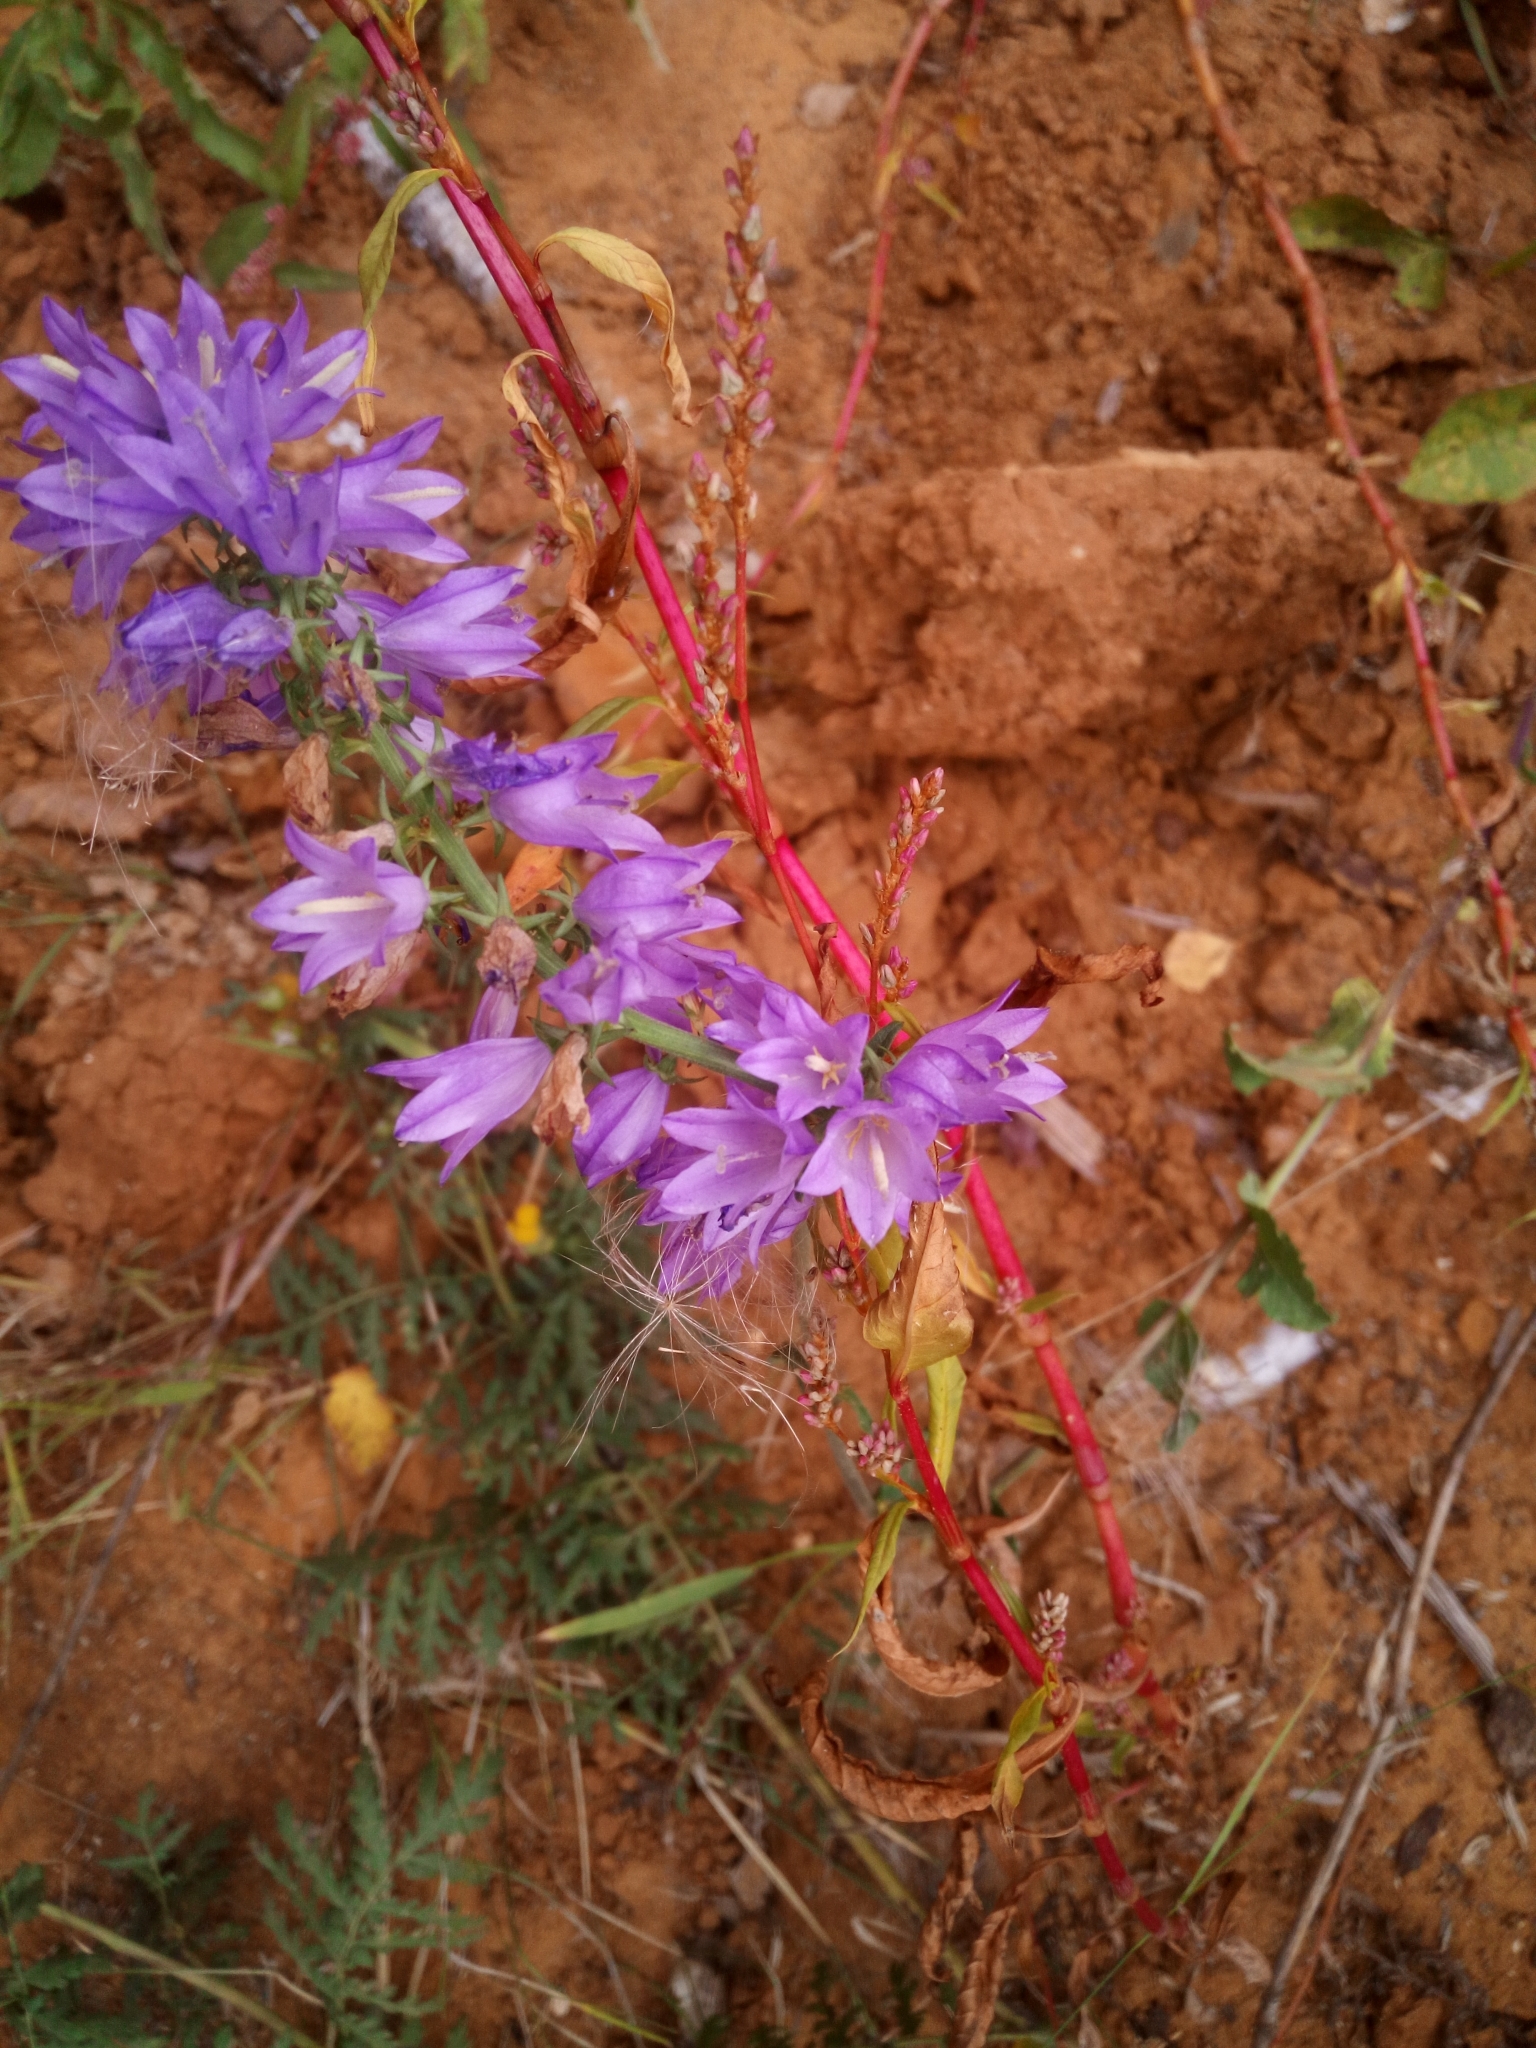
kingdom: Plantae
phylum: Tracheophyta
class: Magnoliopsida
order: Asterales
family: Campanulaceae
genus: Campanula
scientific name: Campanula rapunculoides
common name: Creeping bellflower
